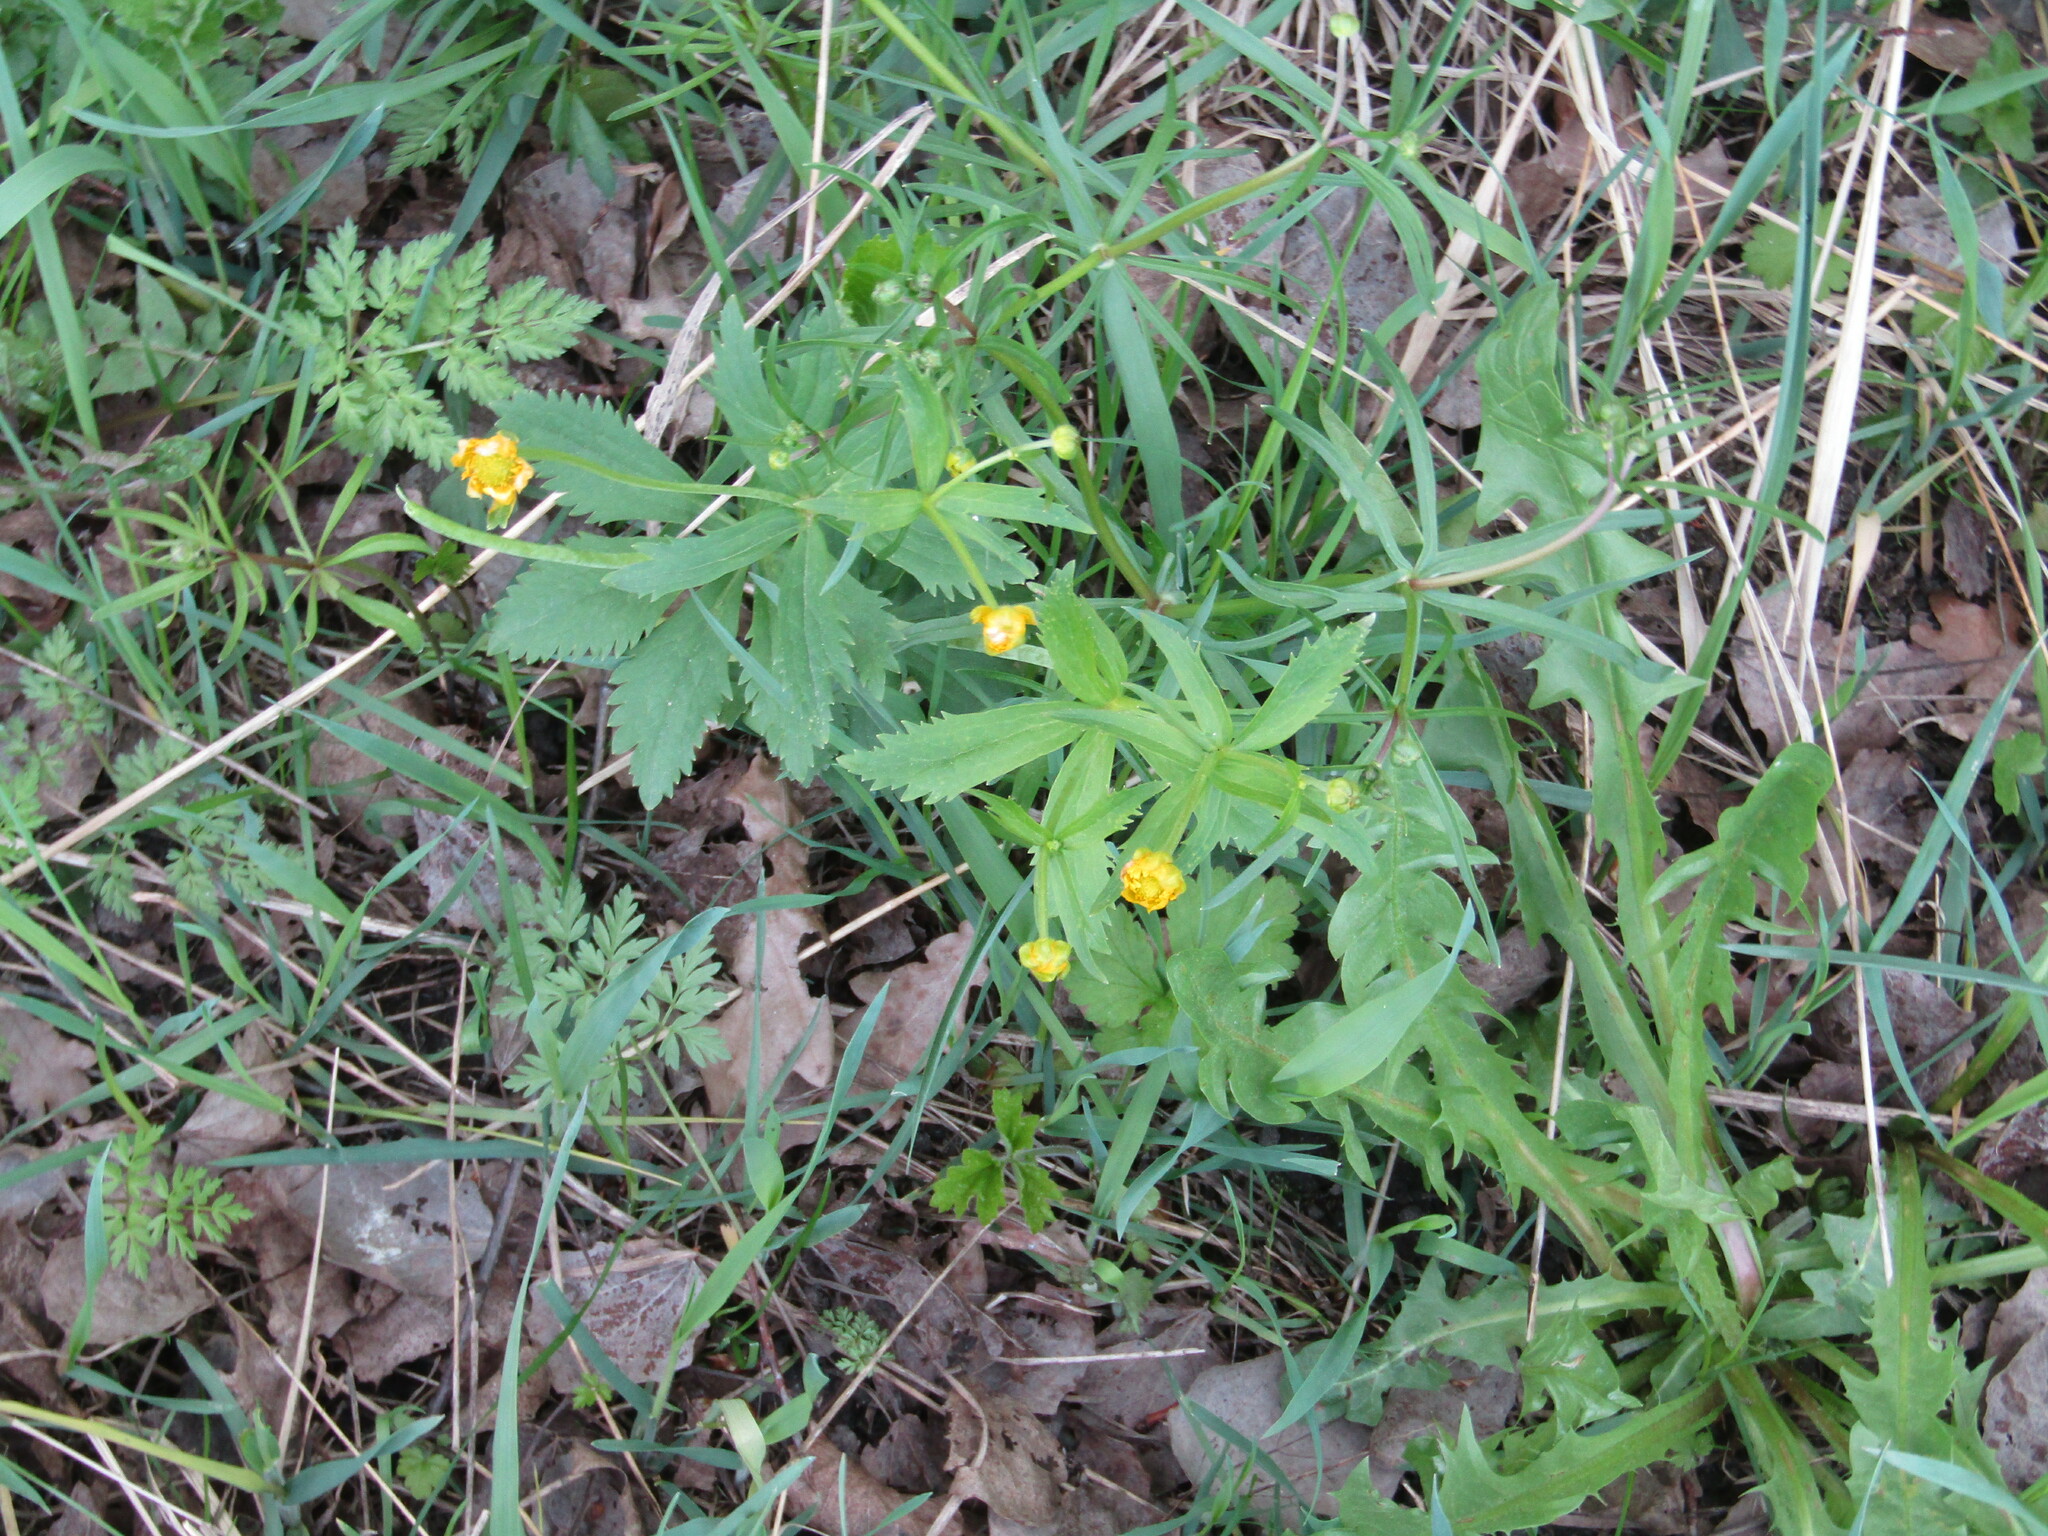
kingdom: Plantae
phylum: Tracheophyta
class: Magnoliopsida
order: Ranunculales
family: Ranunculaceae
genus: Ranunculus
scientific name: Ranunculus cassubicus
